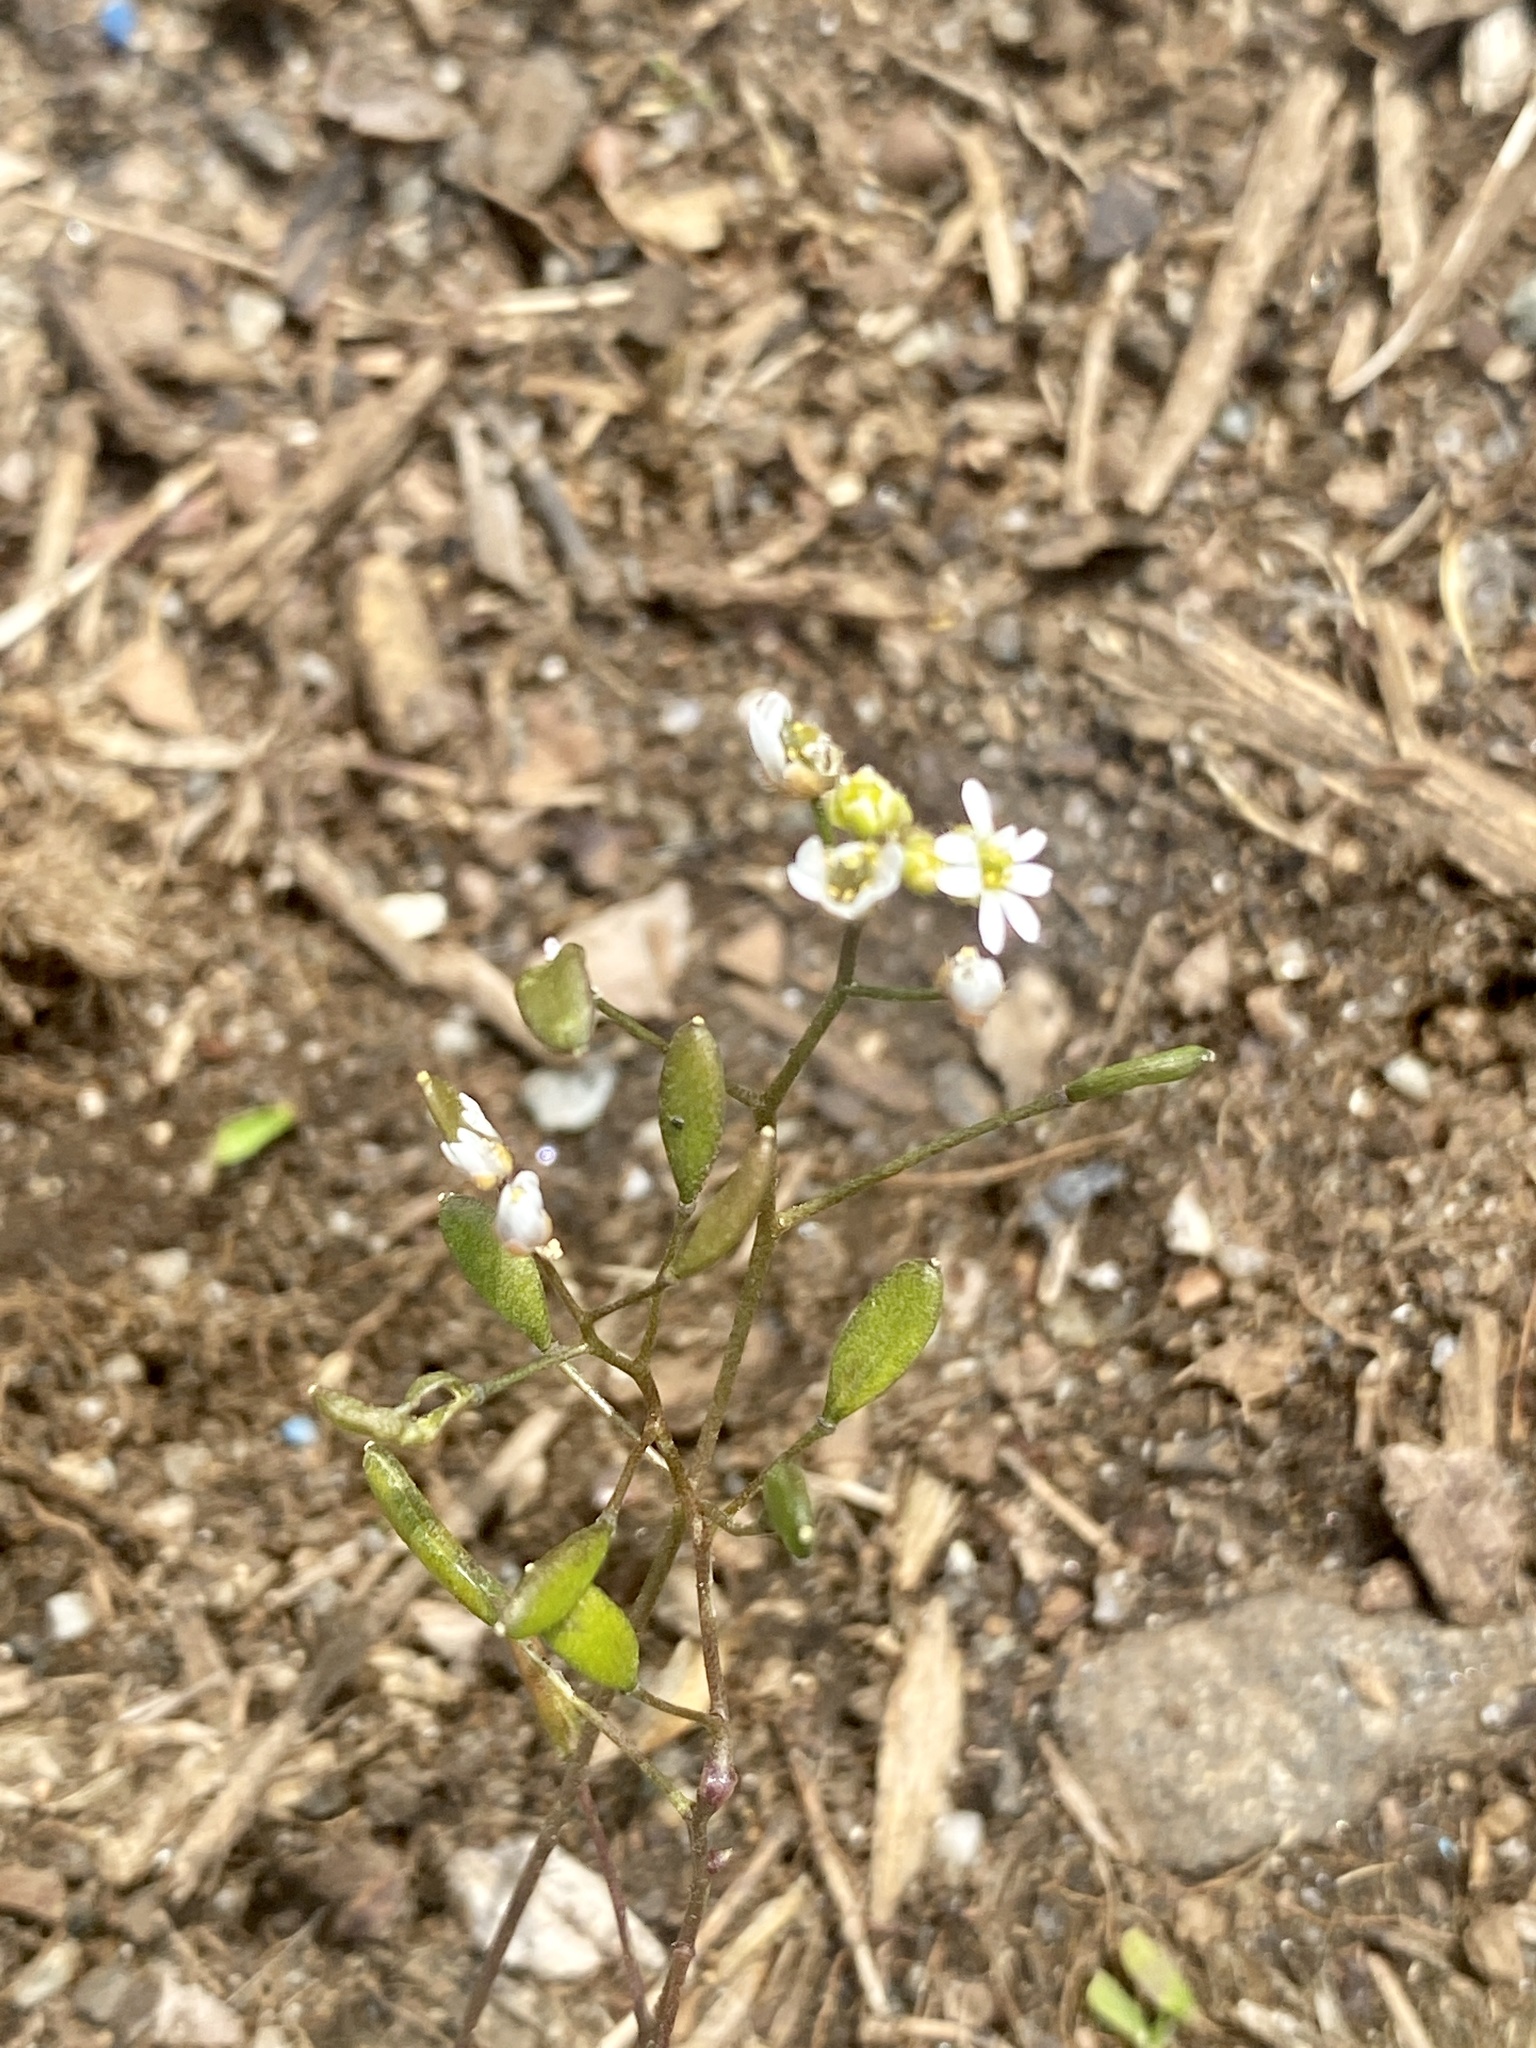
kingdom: Plantae
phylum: Tracheophyta
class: Magnoliopsida
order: Brassicales
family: Brassicaceae
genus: Draba
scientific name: Draba verna
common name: Spring draba
